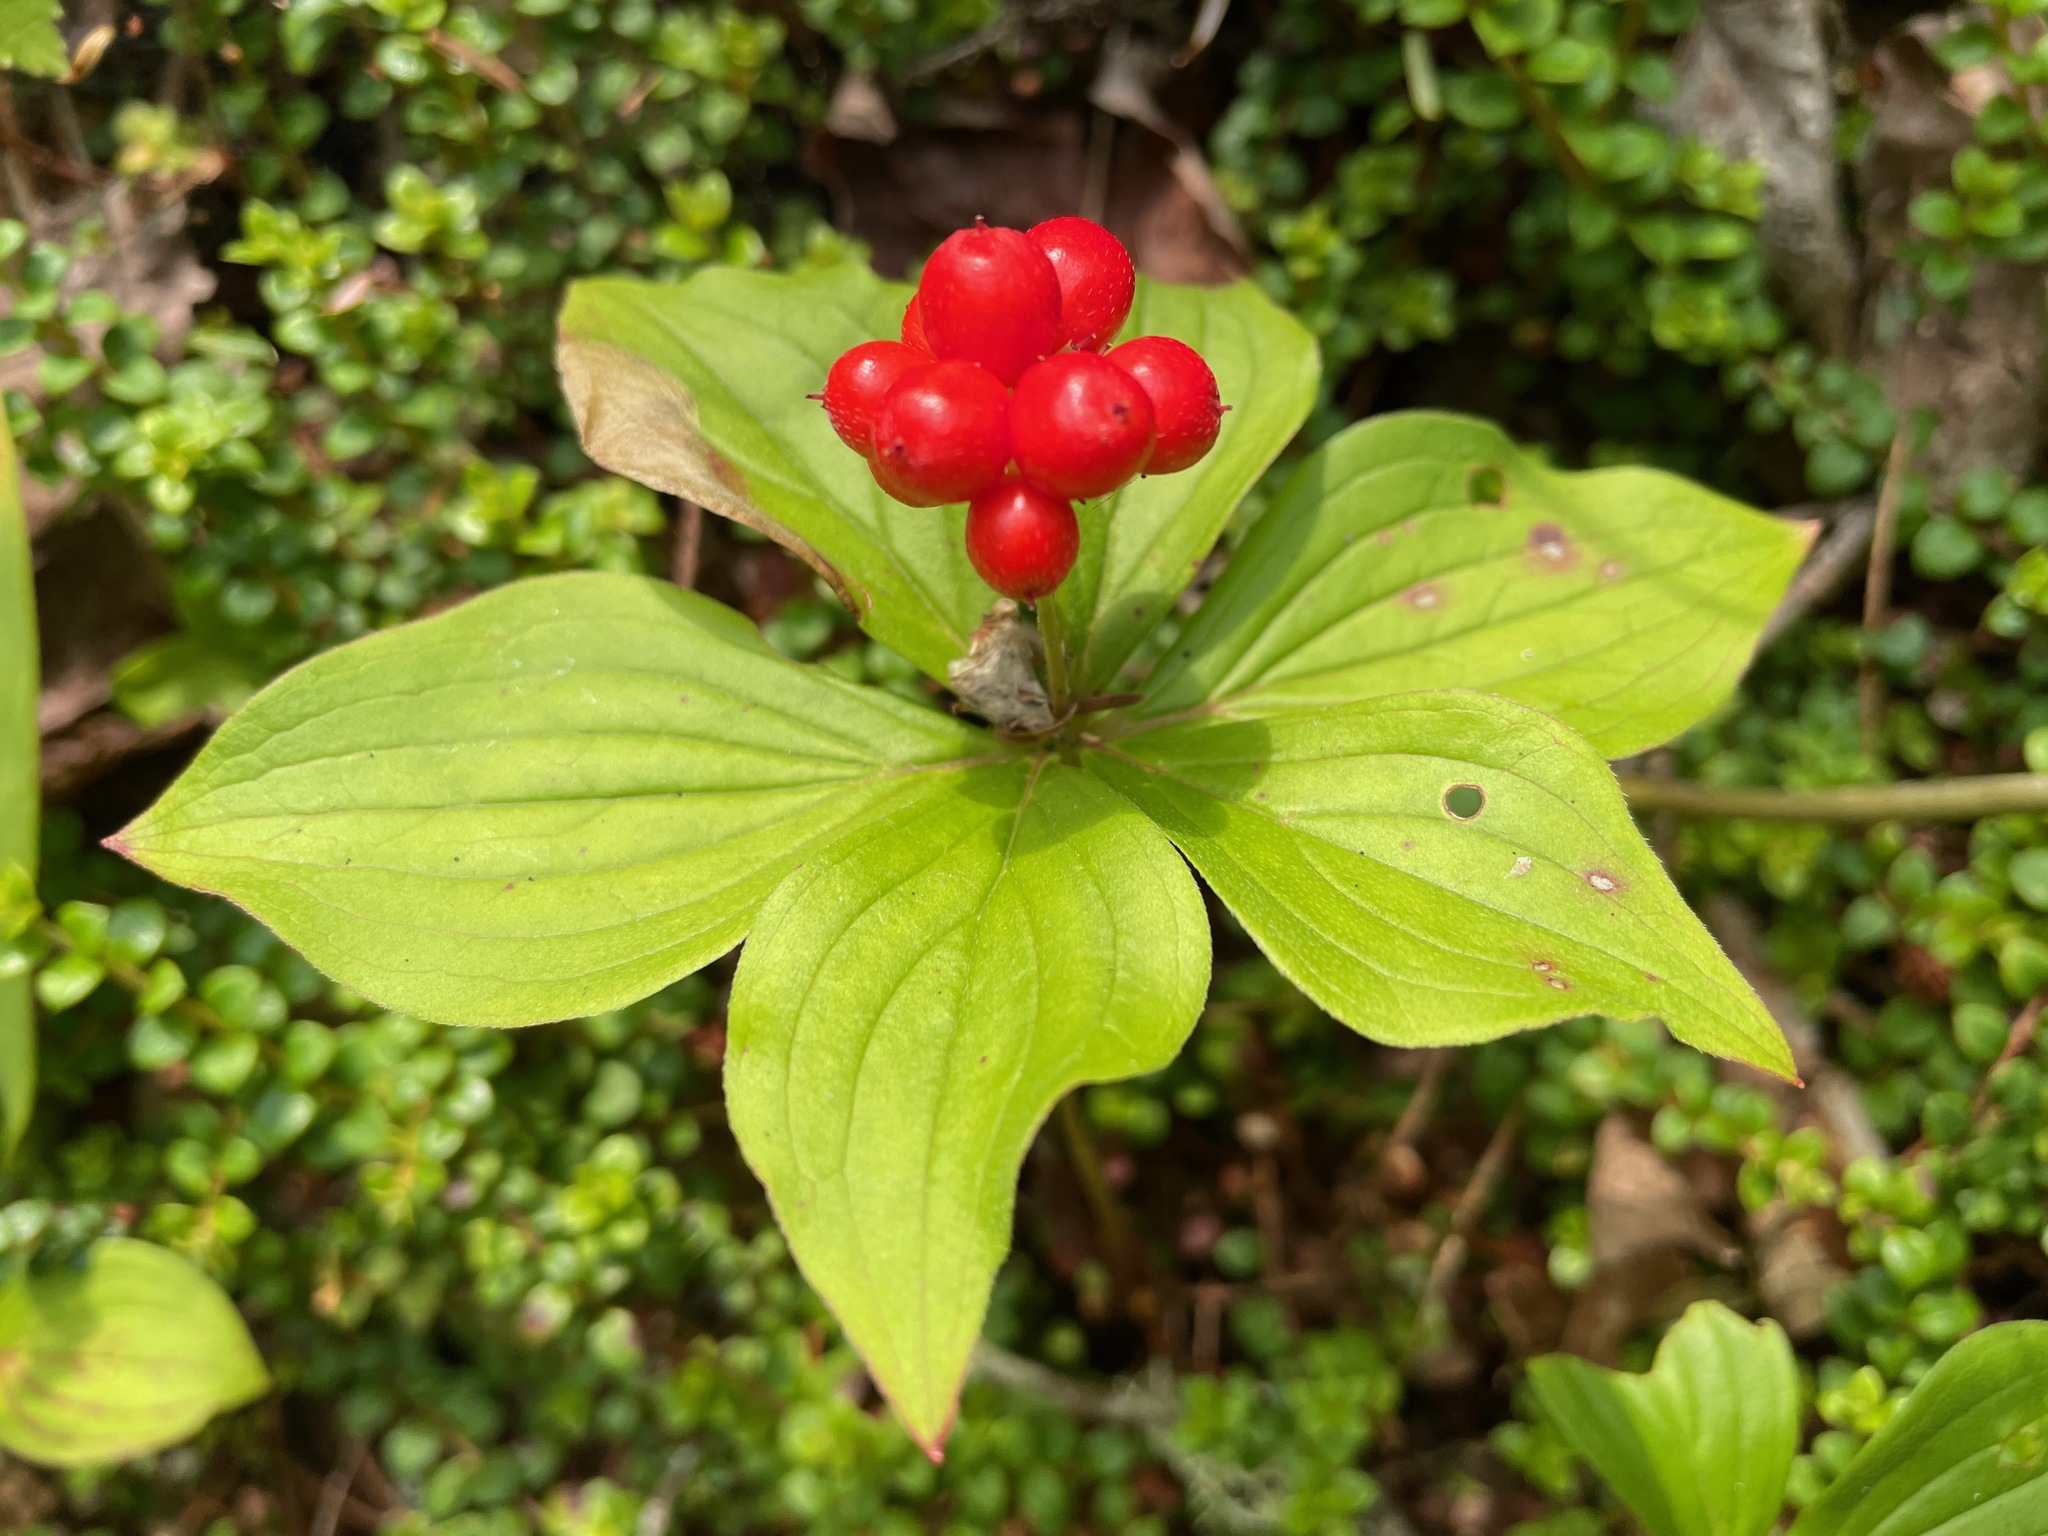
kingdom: Plantae
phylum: Tracheophyta
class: Magnoliopsida
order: Cornales
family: Cornaceae
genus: Cornus
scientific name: Cornus canadensis
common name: Creeping dogwood
